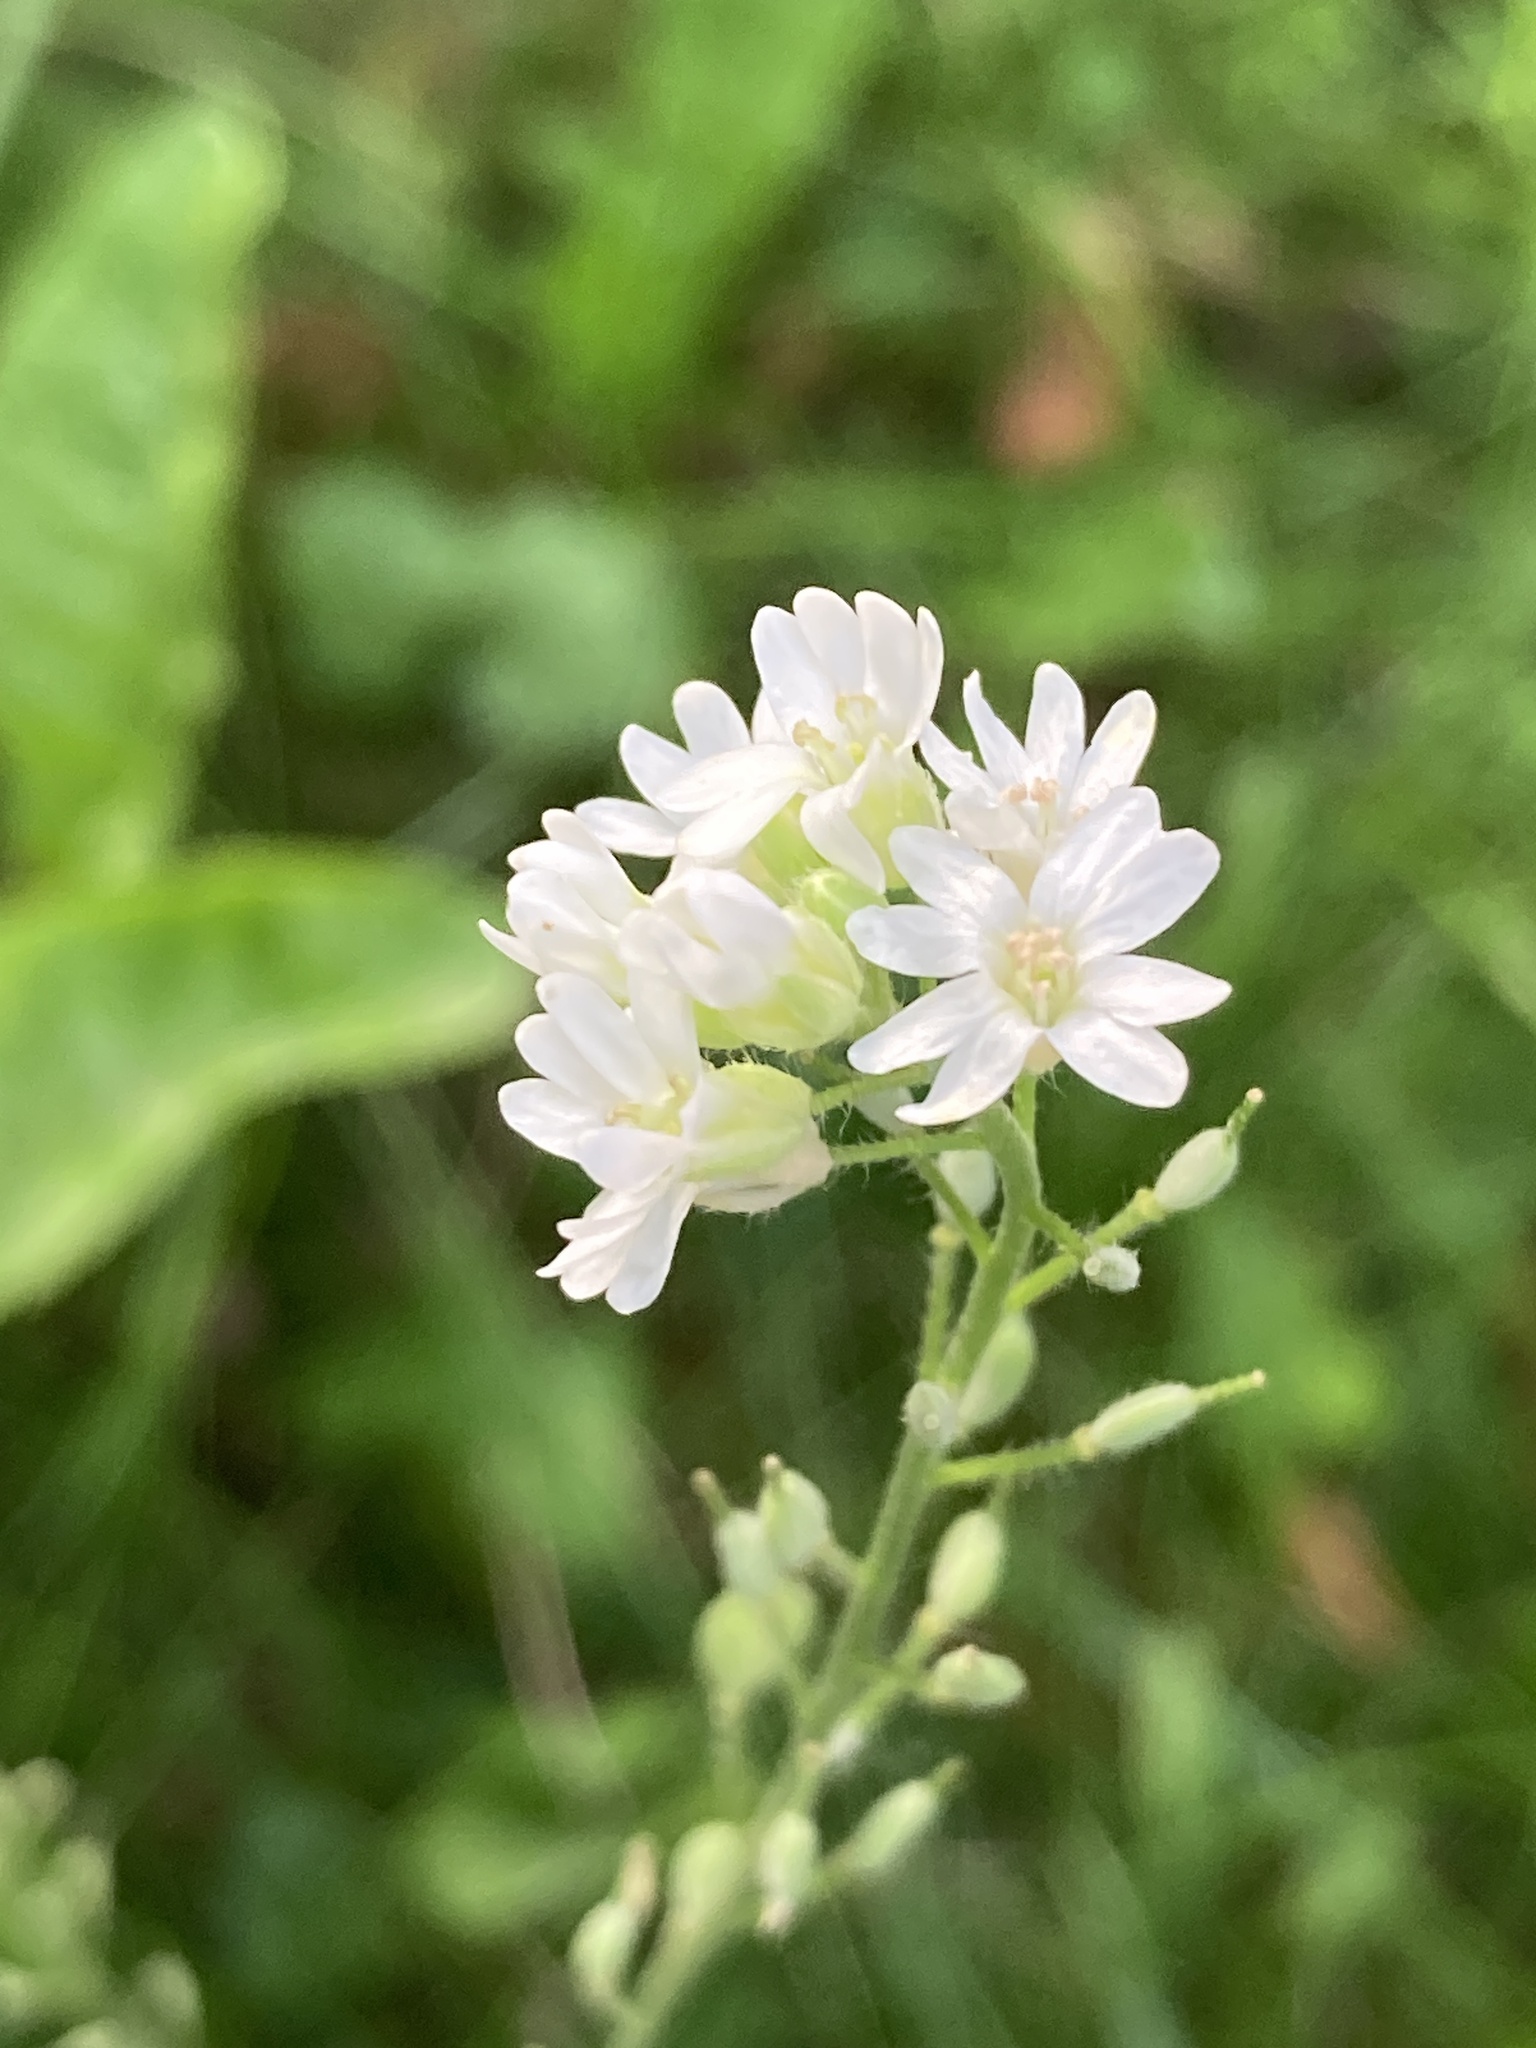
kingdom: Plantae
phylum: Tracheophyta
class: Magnoliopsida
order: Brassicales
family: Brassicaceae
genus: Berteroa
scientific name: Berteroa incana
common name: Hoary alison
